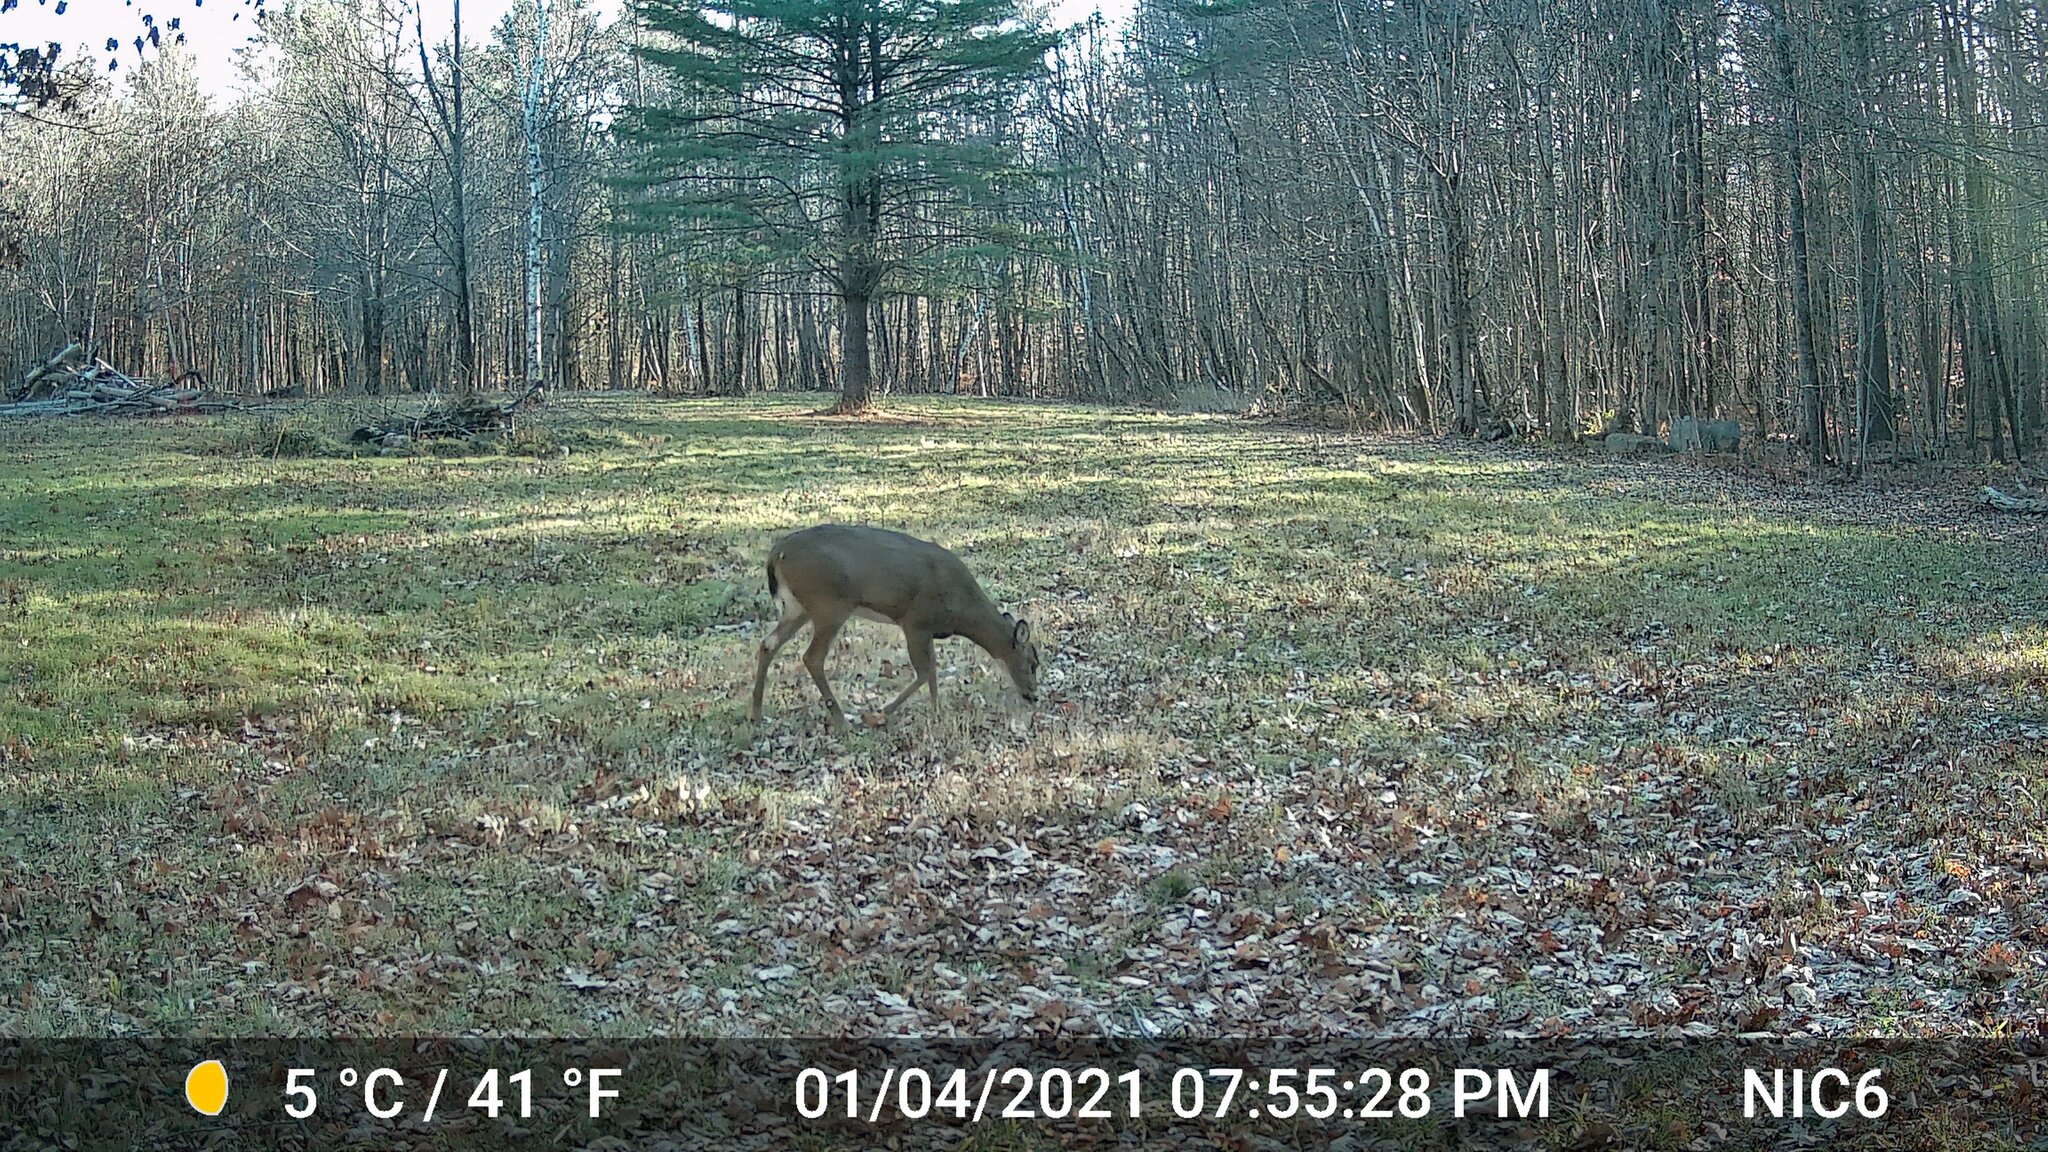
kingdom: Animalia
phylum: Chordata
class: Mammalia
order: Artiodactyla
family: Cervidae
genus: Odocoileus
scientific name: Odocoileus virginianus
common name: White-tailed deer
